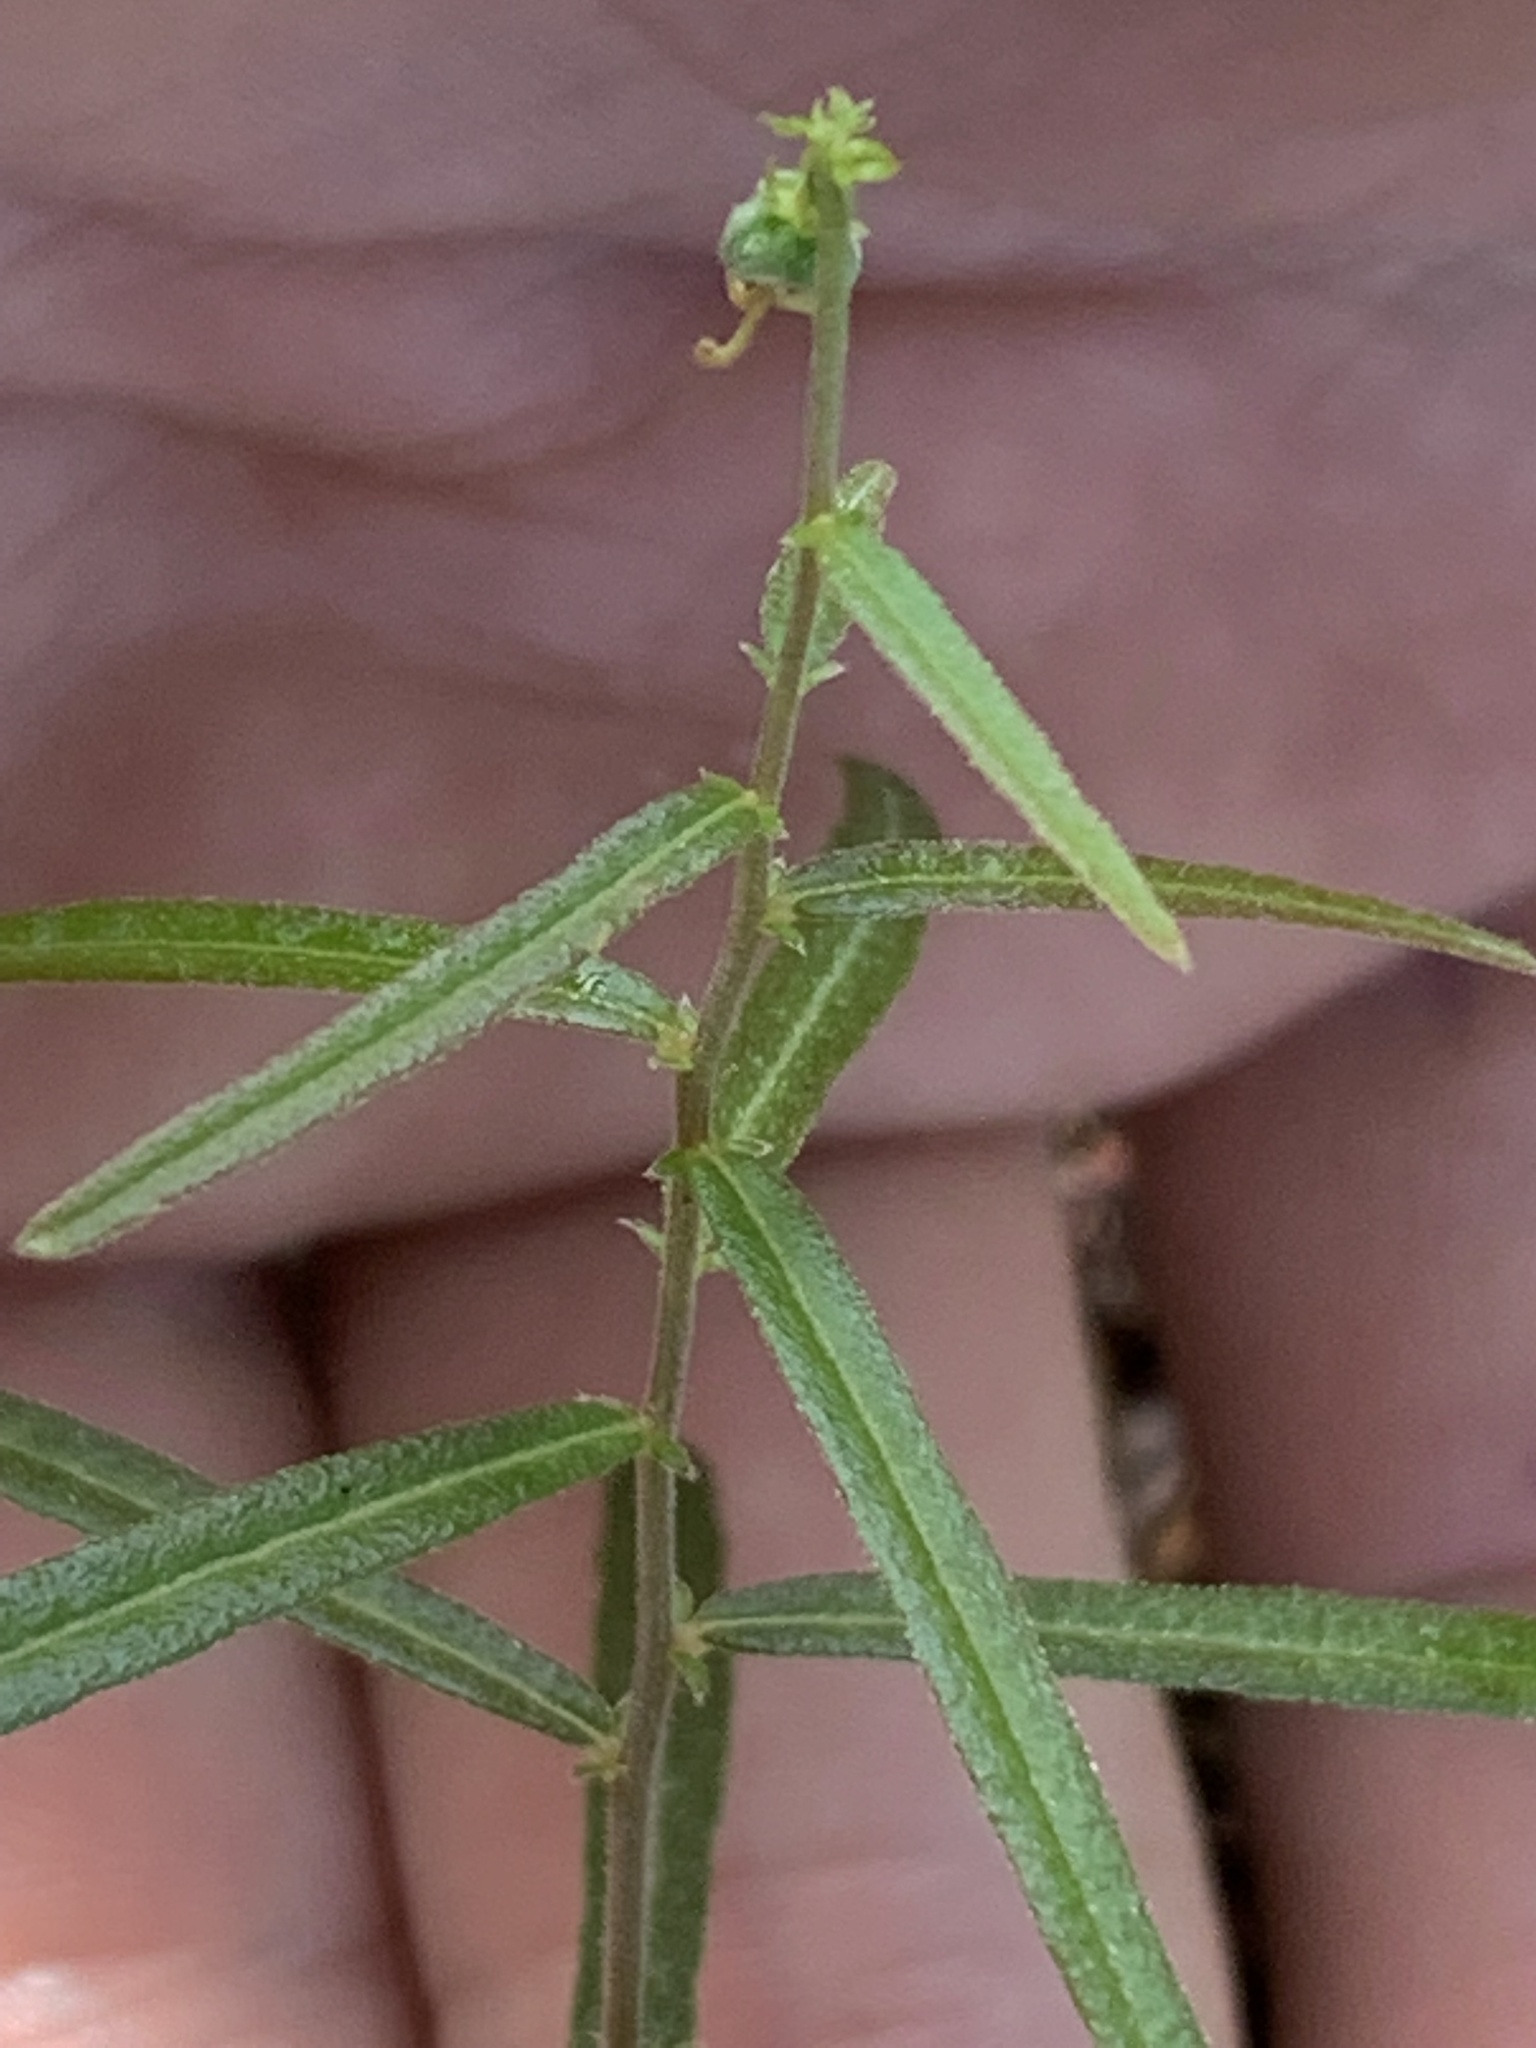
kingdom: Plantae
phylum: Tracheophyta
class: Magnoliopsida
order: Malpighiales
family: Euphorbiaceae
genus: Tragia
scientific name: Tragia urens
